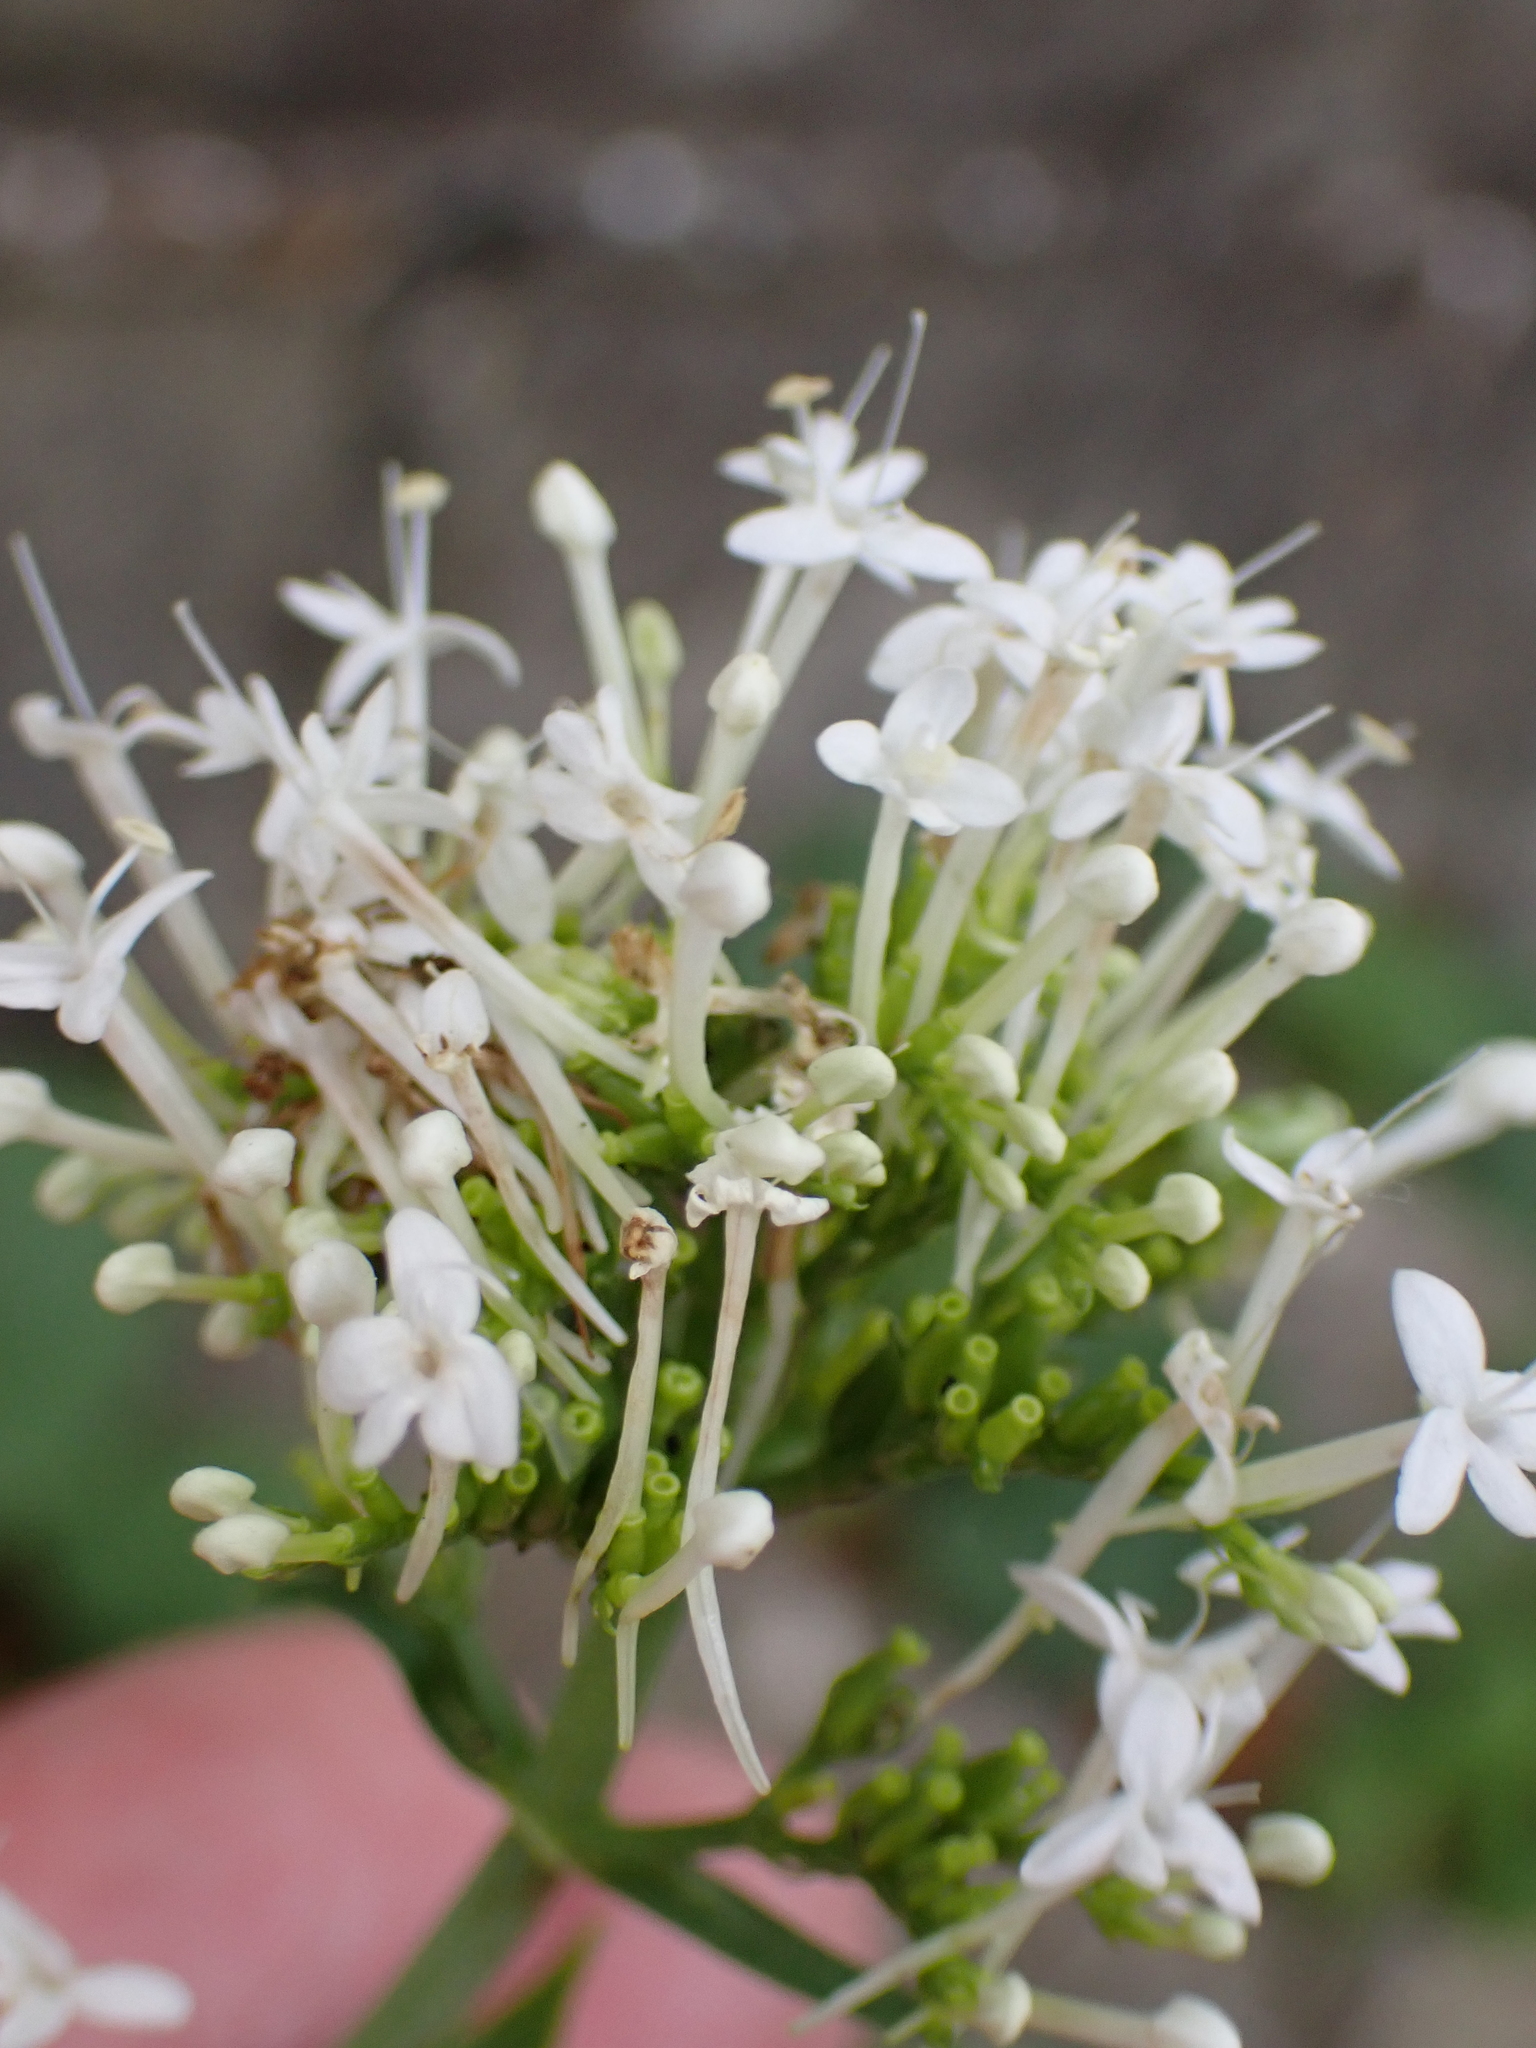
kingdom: Plantae
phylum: Tracheophyta
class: Magnoliopsida
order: Dipsacales
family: Caprifoliaceae
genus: Centranthus
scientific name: Centranthus ruber
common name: Red valerian
